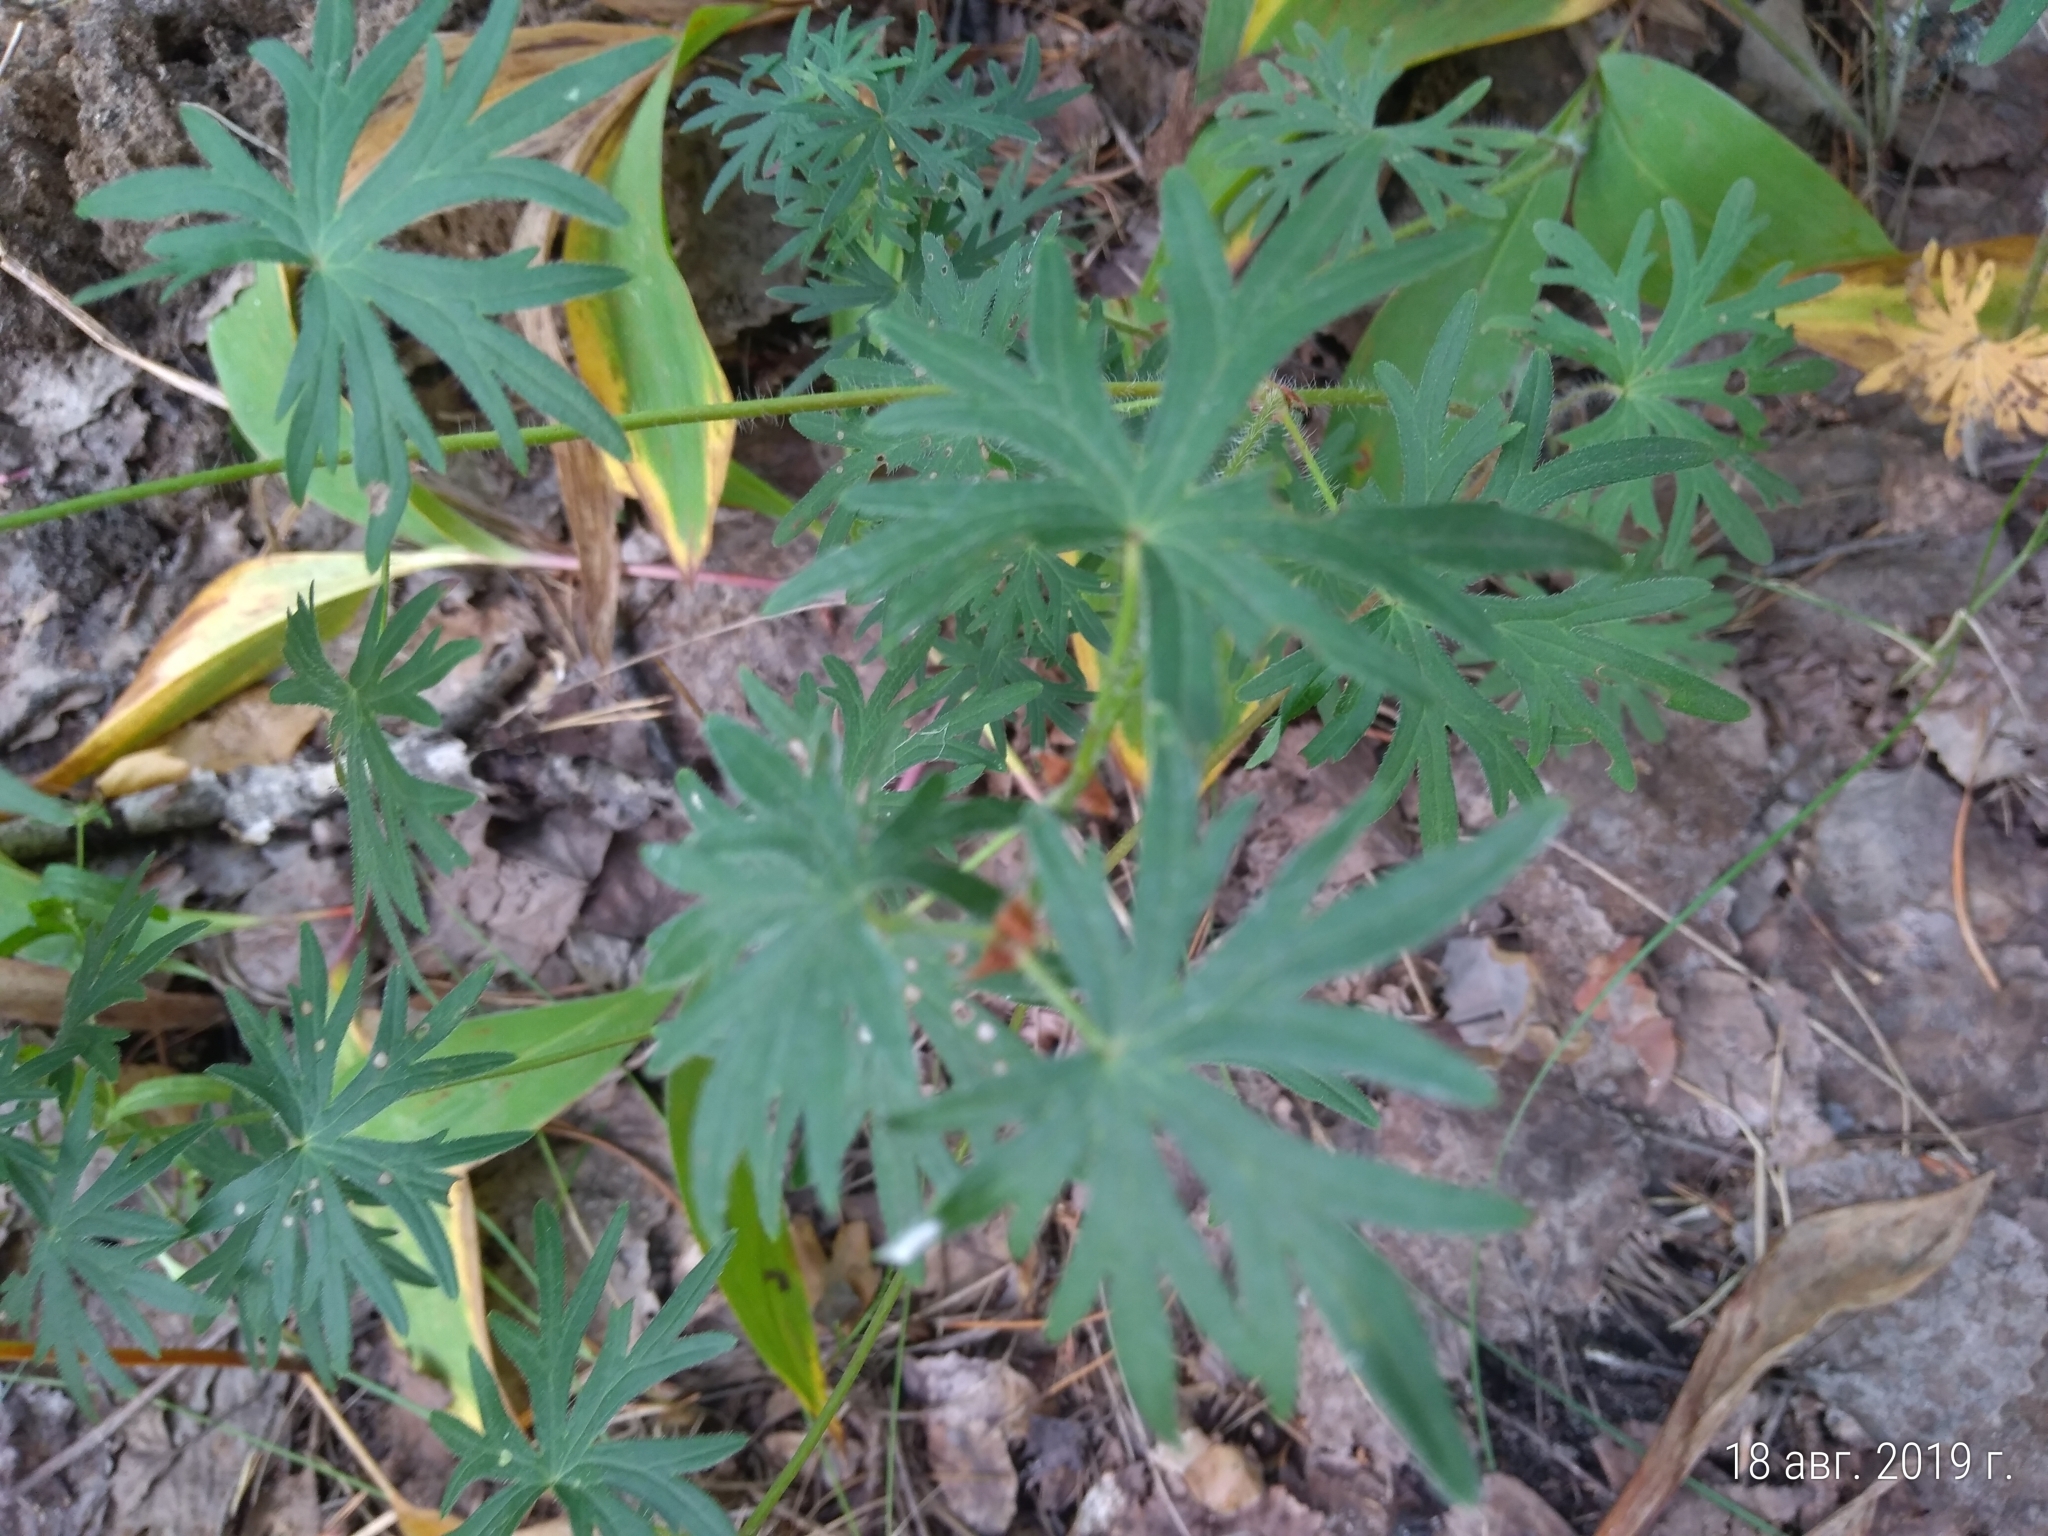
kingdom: Plantae
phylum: Tracheophyta
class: Magnoliopsida
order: Geraniales
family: Geraniaceae
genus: Geranium
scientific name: Geranium sanguineum
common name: Bloody crane's-bill
